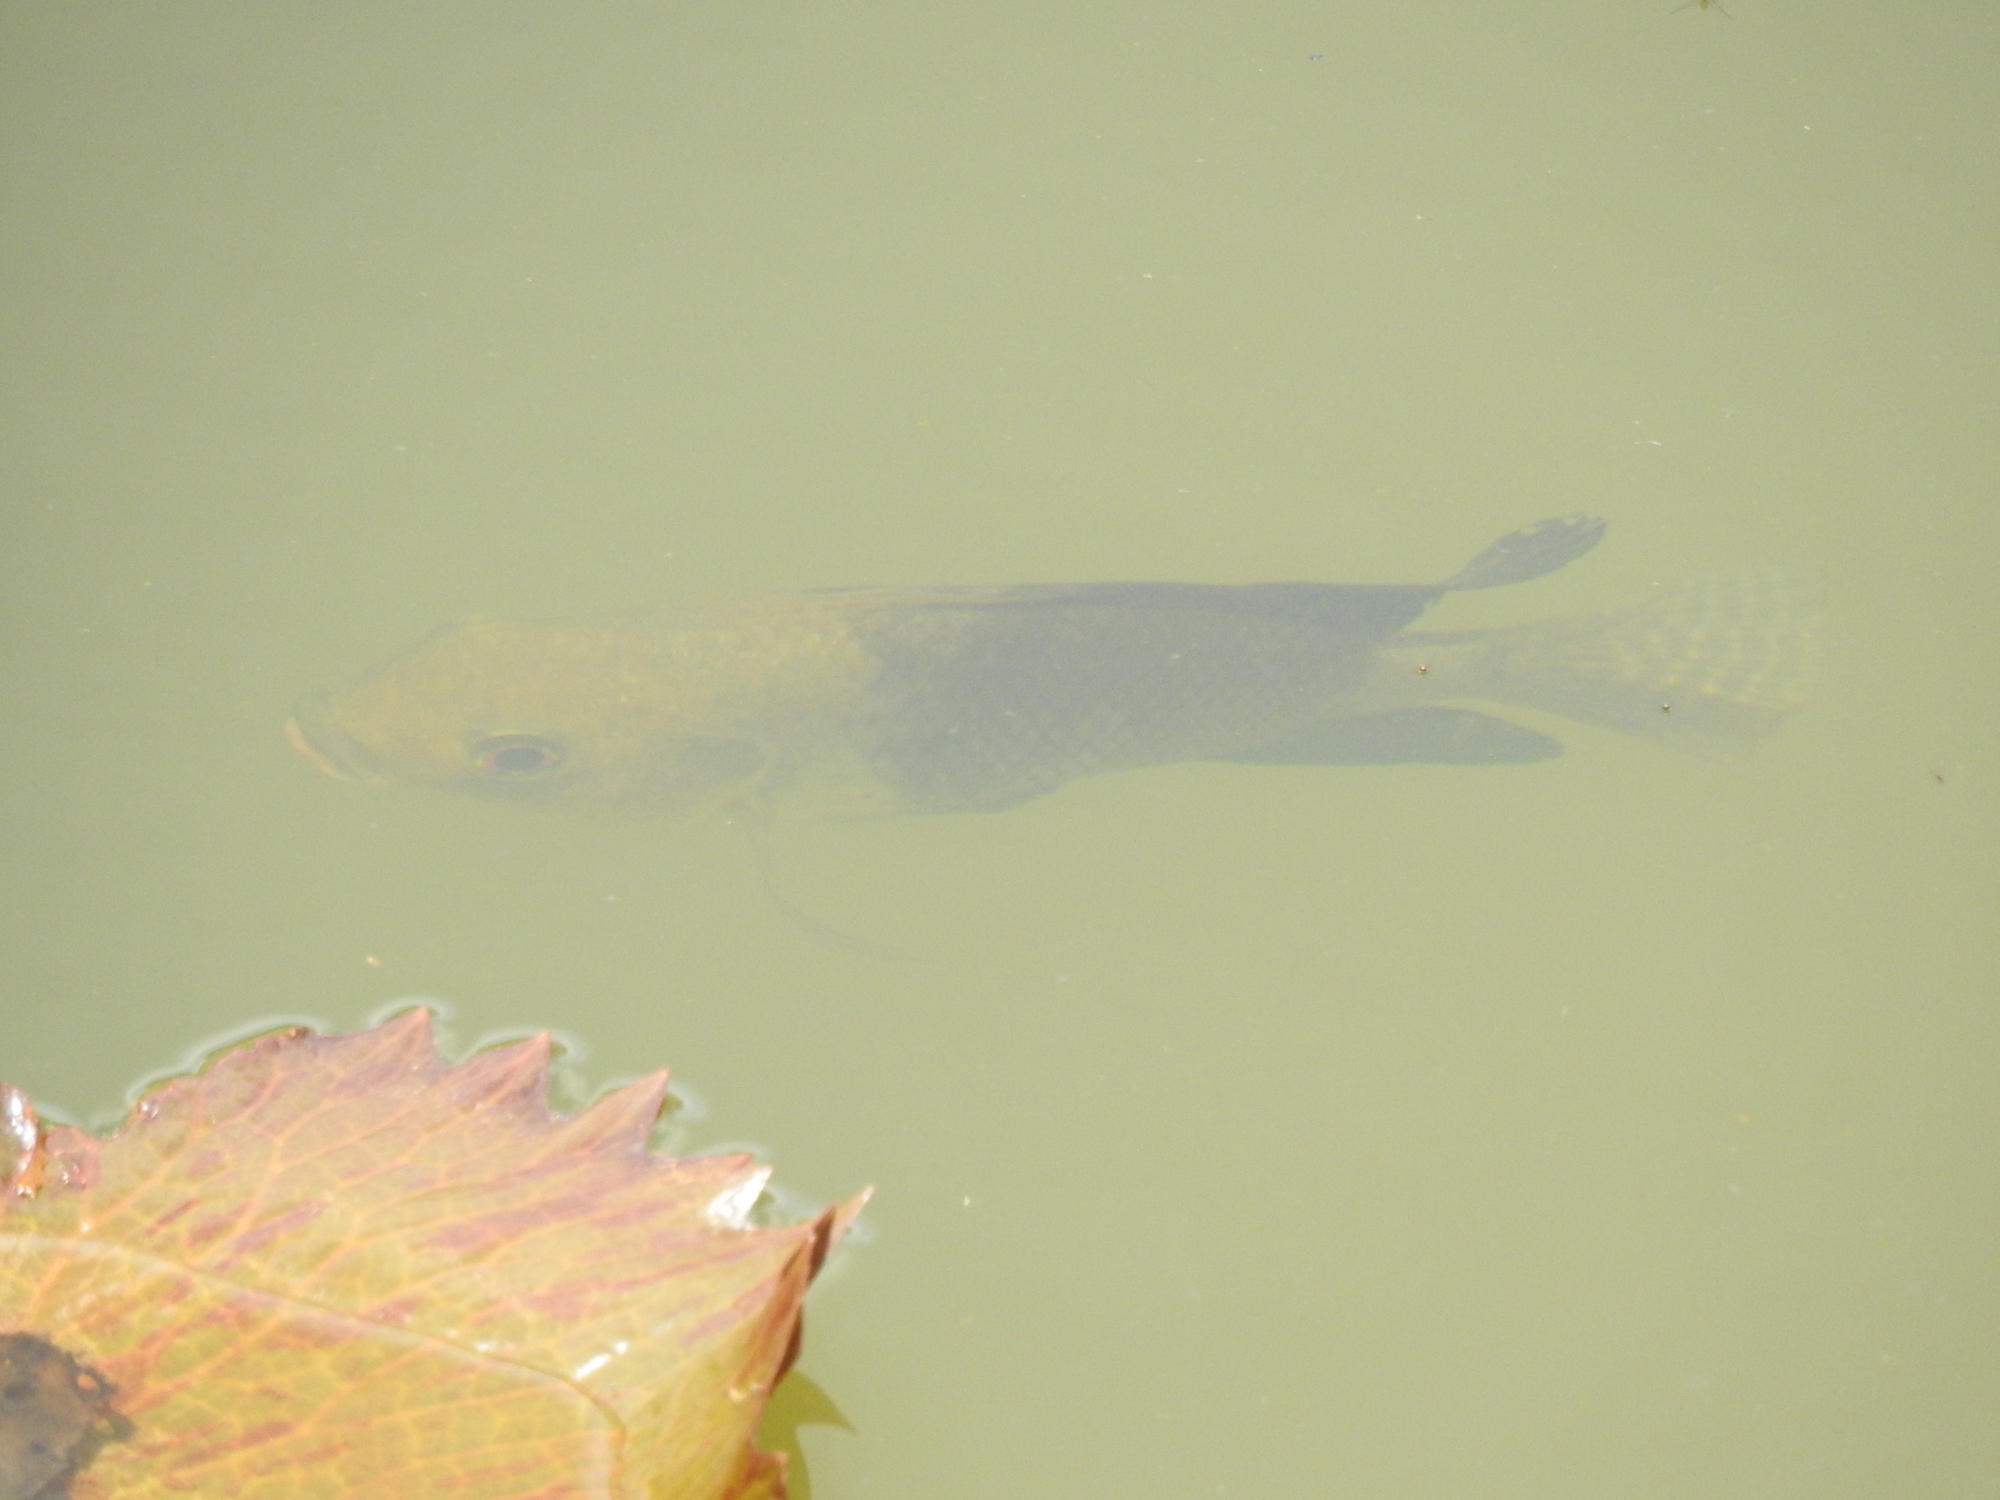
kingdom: Animalia
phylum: Chordata
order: Perciformes
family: Cichlidae
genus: Oreochromis
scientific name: Oreochromis niloticus
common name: Nile tilapia
